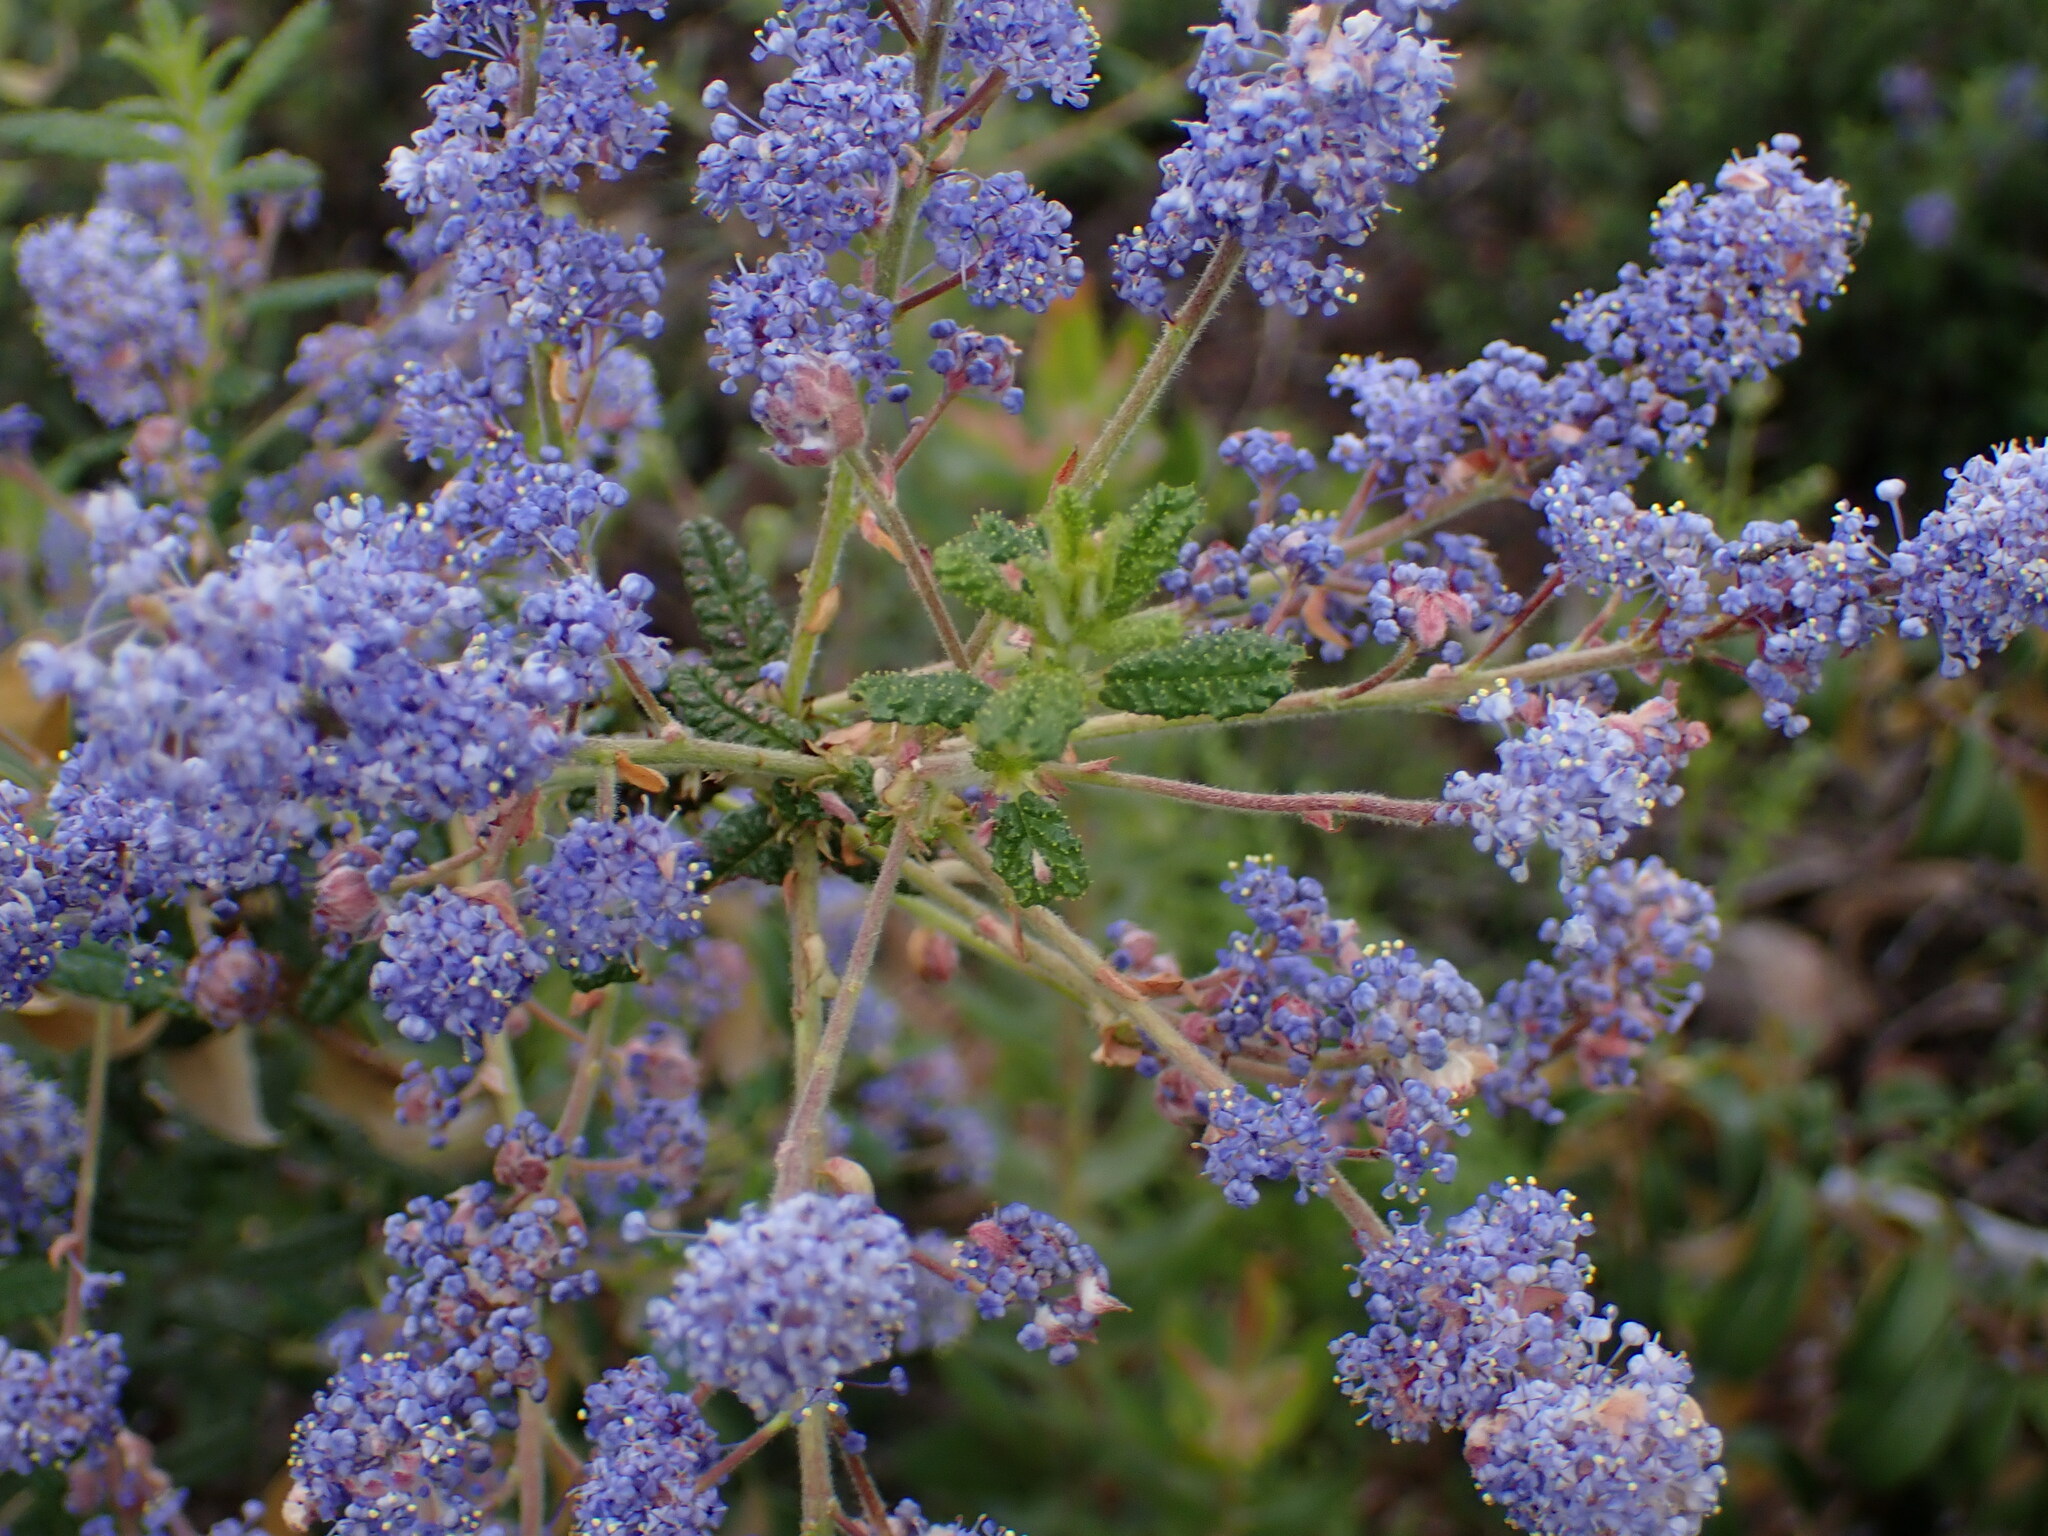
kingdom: Plantae
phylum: Tracheophyta
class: Magnoliopsida
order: Rosales
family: Rhamnaceae
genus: Ceanothus
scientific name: Ceanothus papillosus
